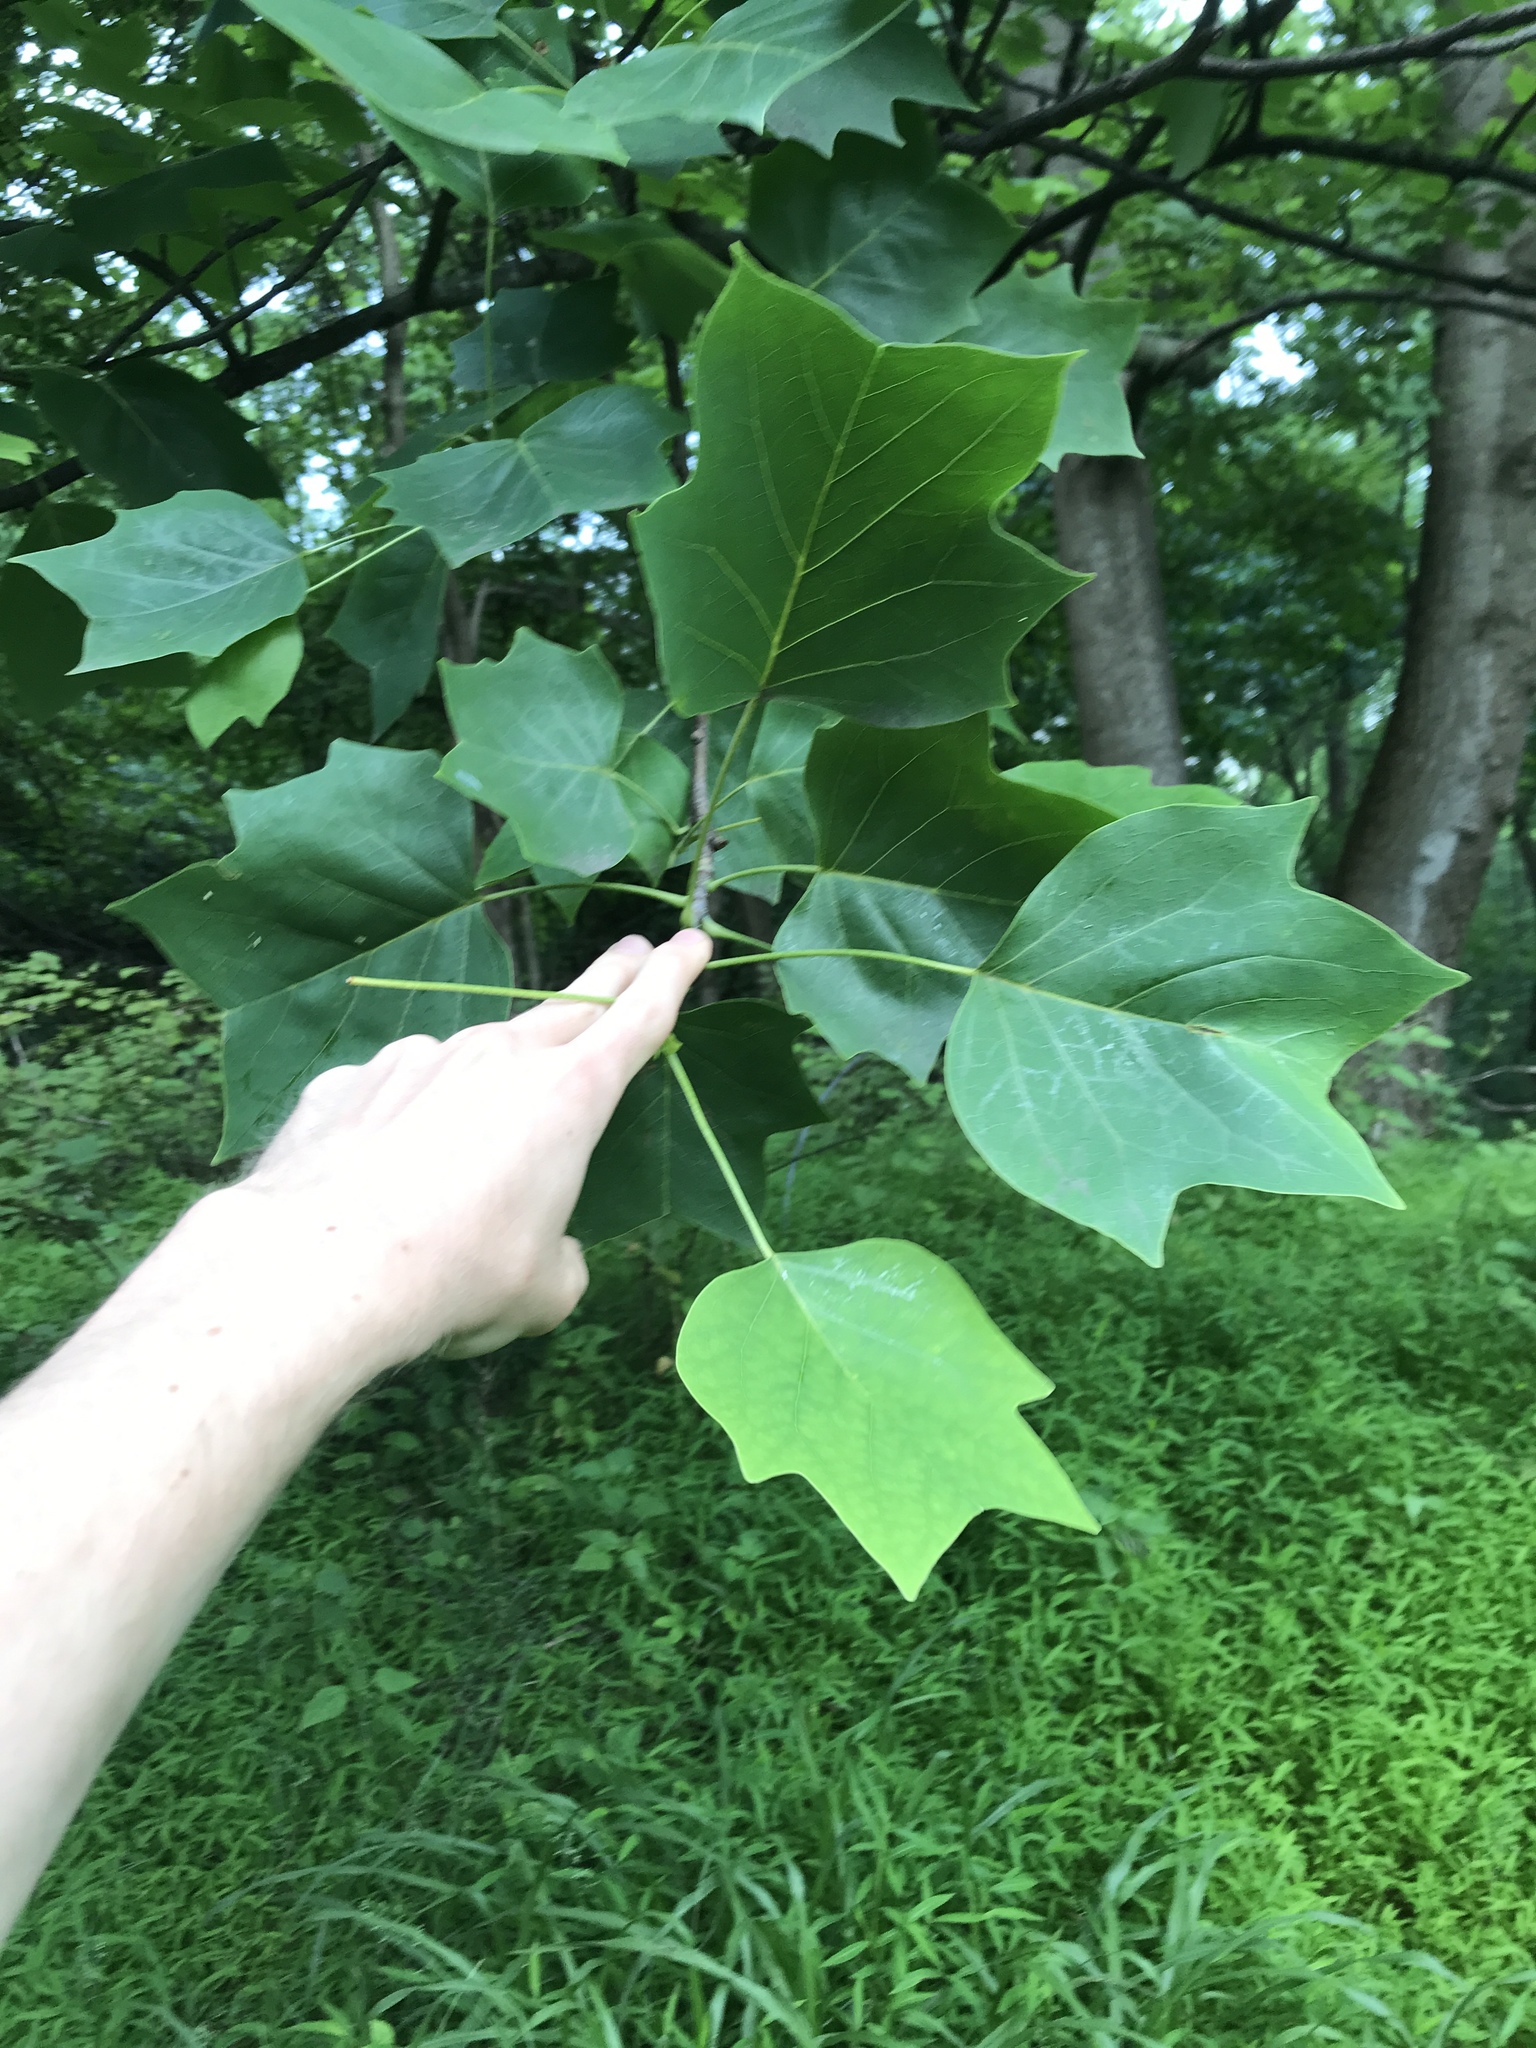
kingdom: Plantae
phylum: Tracheophyta
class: Magnoliopsida
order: Magnoliales
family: Magnoliaceae
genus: Liriodendron
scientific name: Liriodendron tulipifera
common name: Tulip tree
